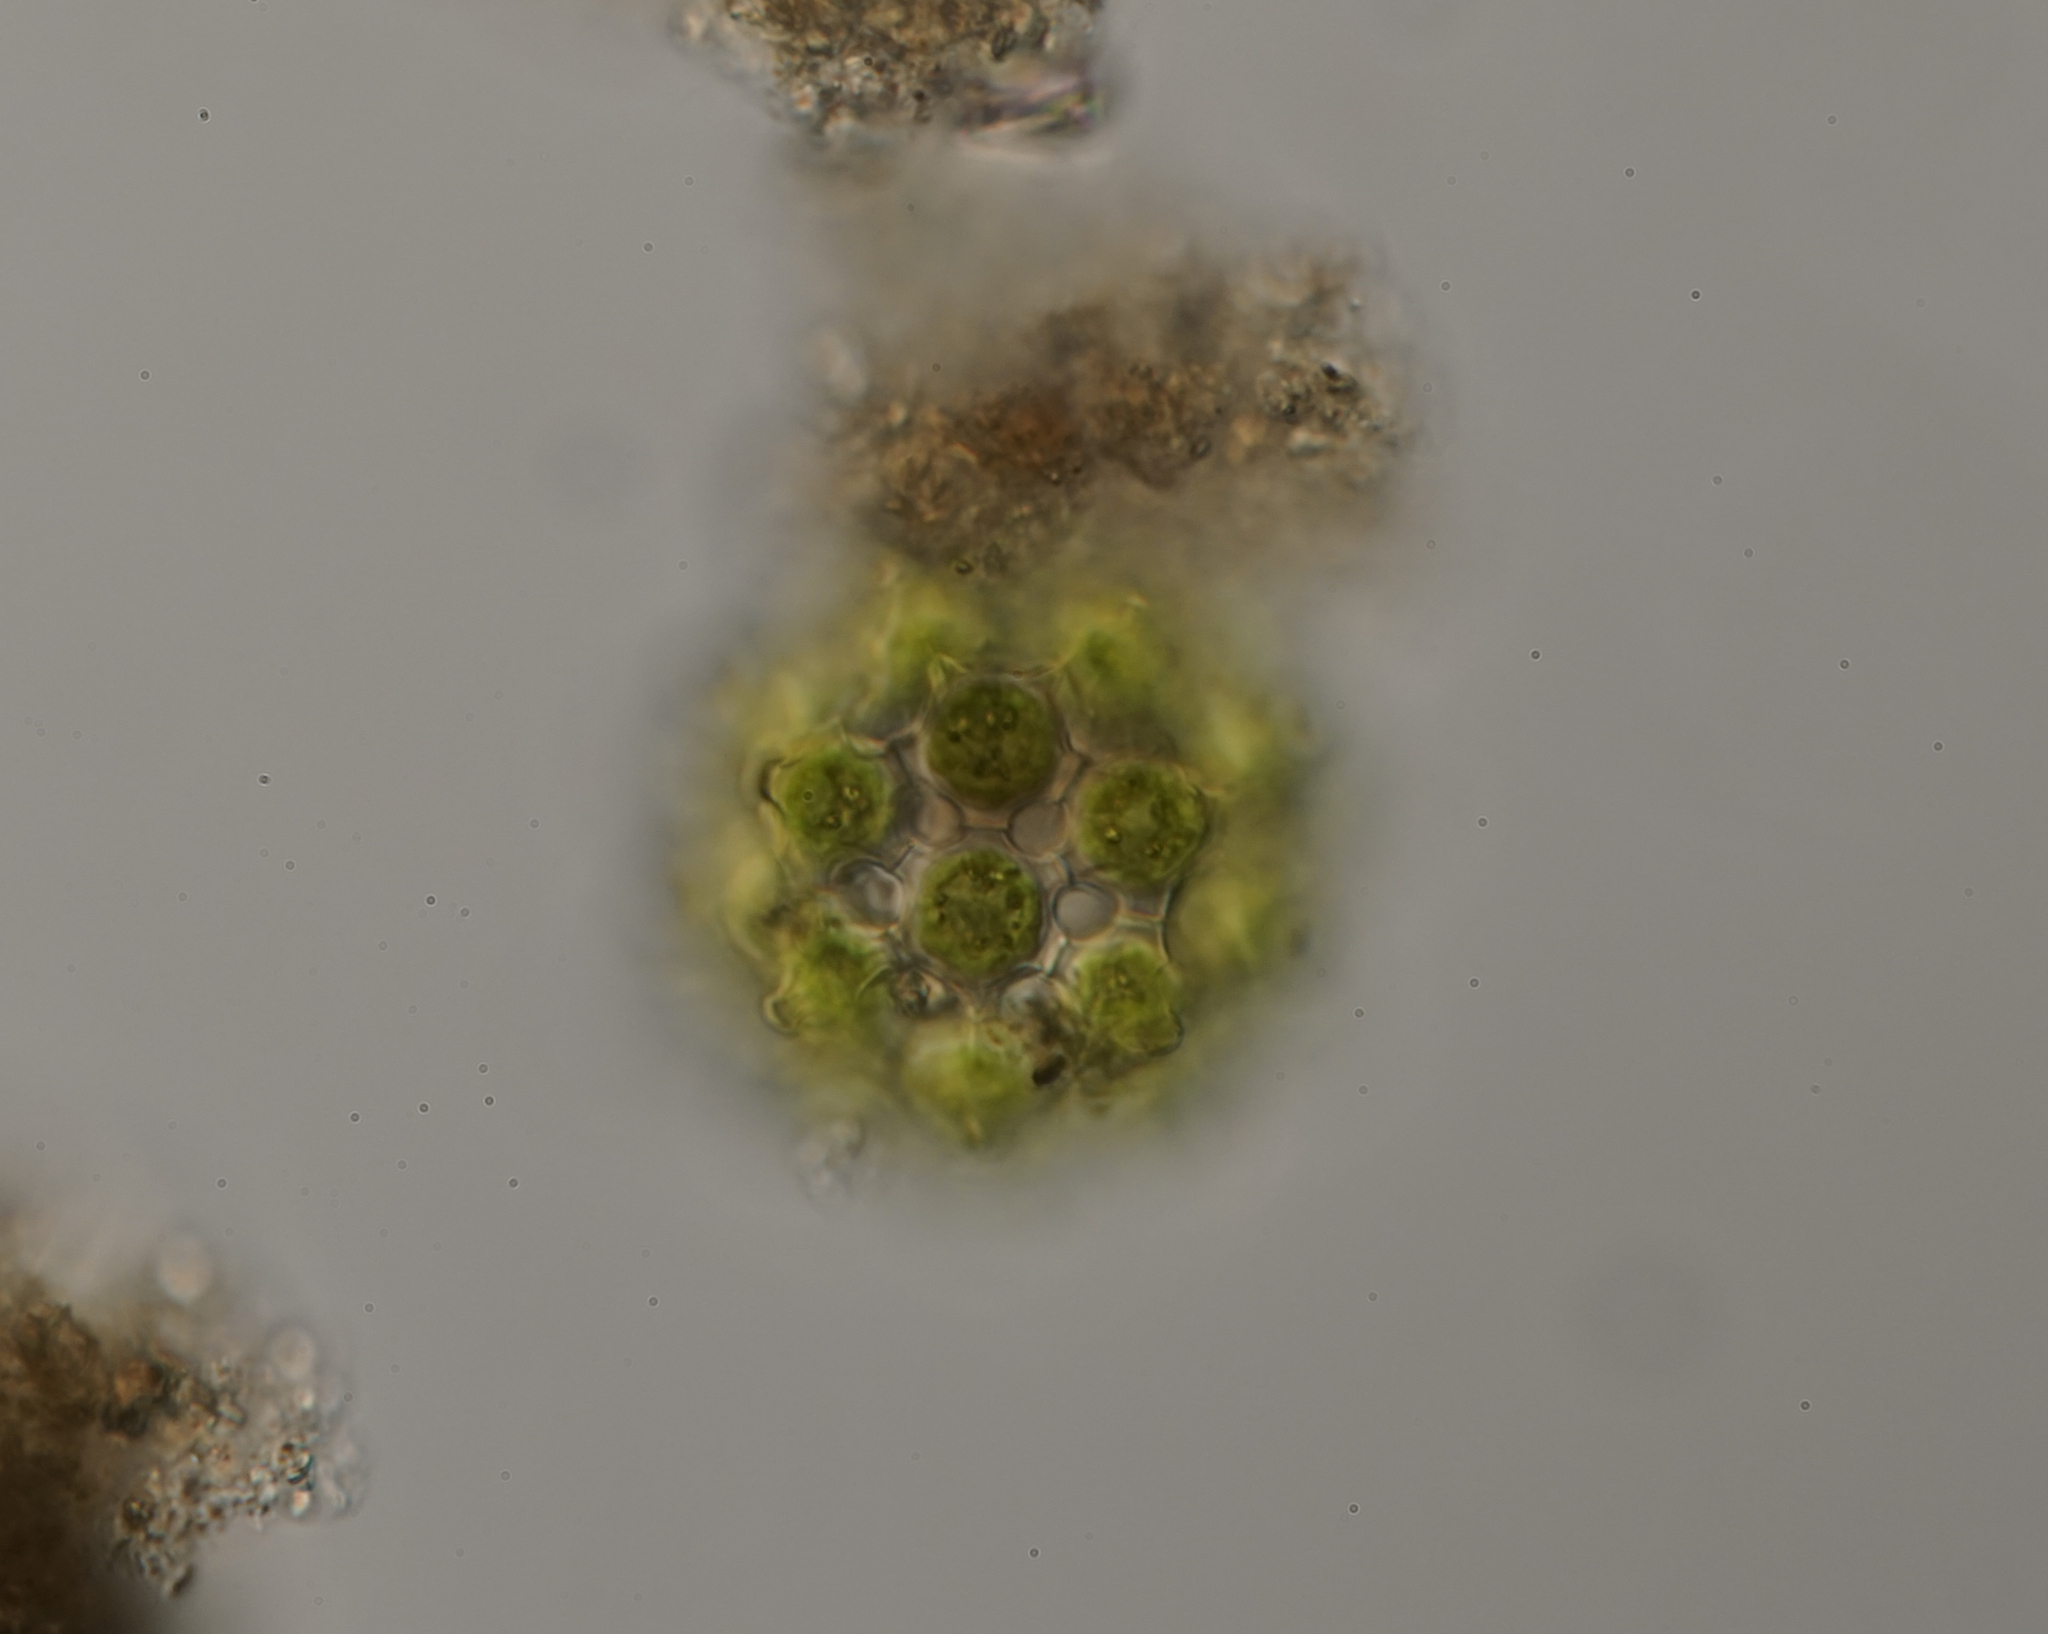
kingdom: Plantae
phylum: Chlorophyta
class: Chlorophyceae
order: Sphaeropleales
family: Scenedesmaceae
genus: Coelastrum
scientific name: Coelastrum cambricum
